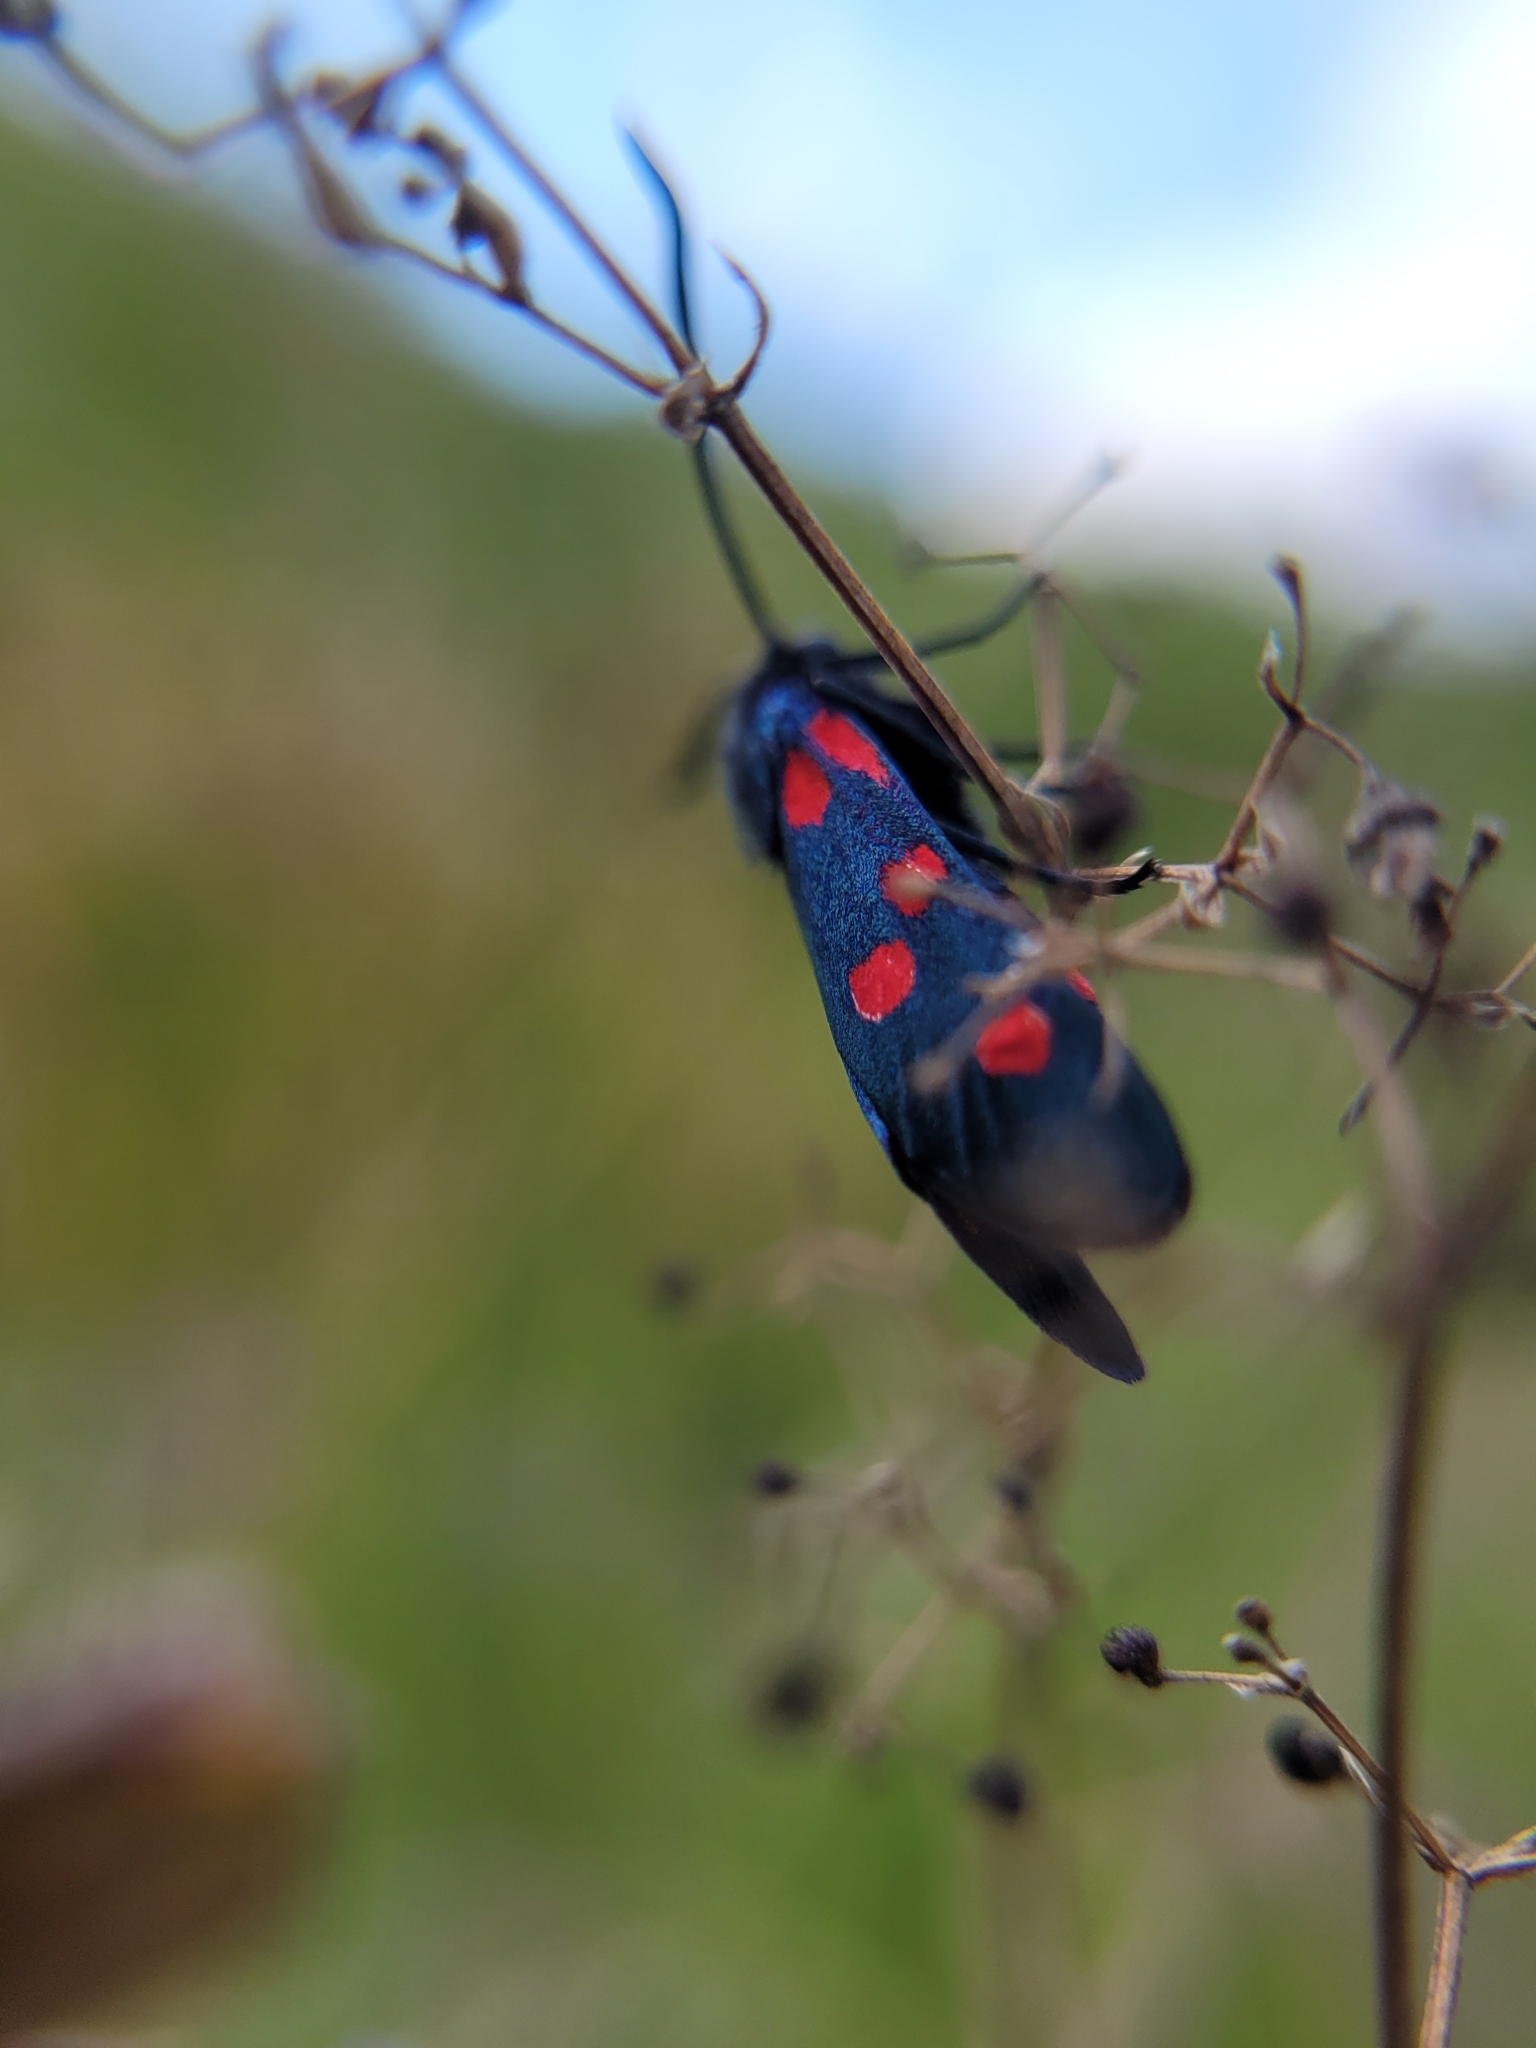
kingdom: Animalia
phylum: Arthropoda
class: Insecta
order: Lepidoptera
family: Zygaenidae
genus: Zygaena
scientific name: Zygaena ephialtes
